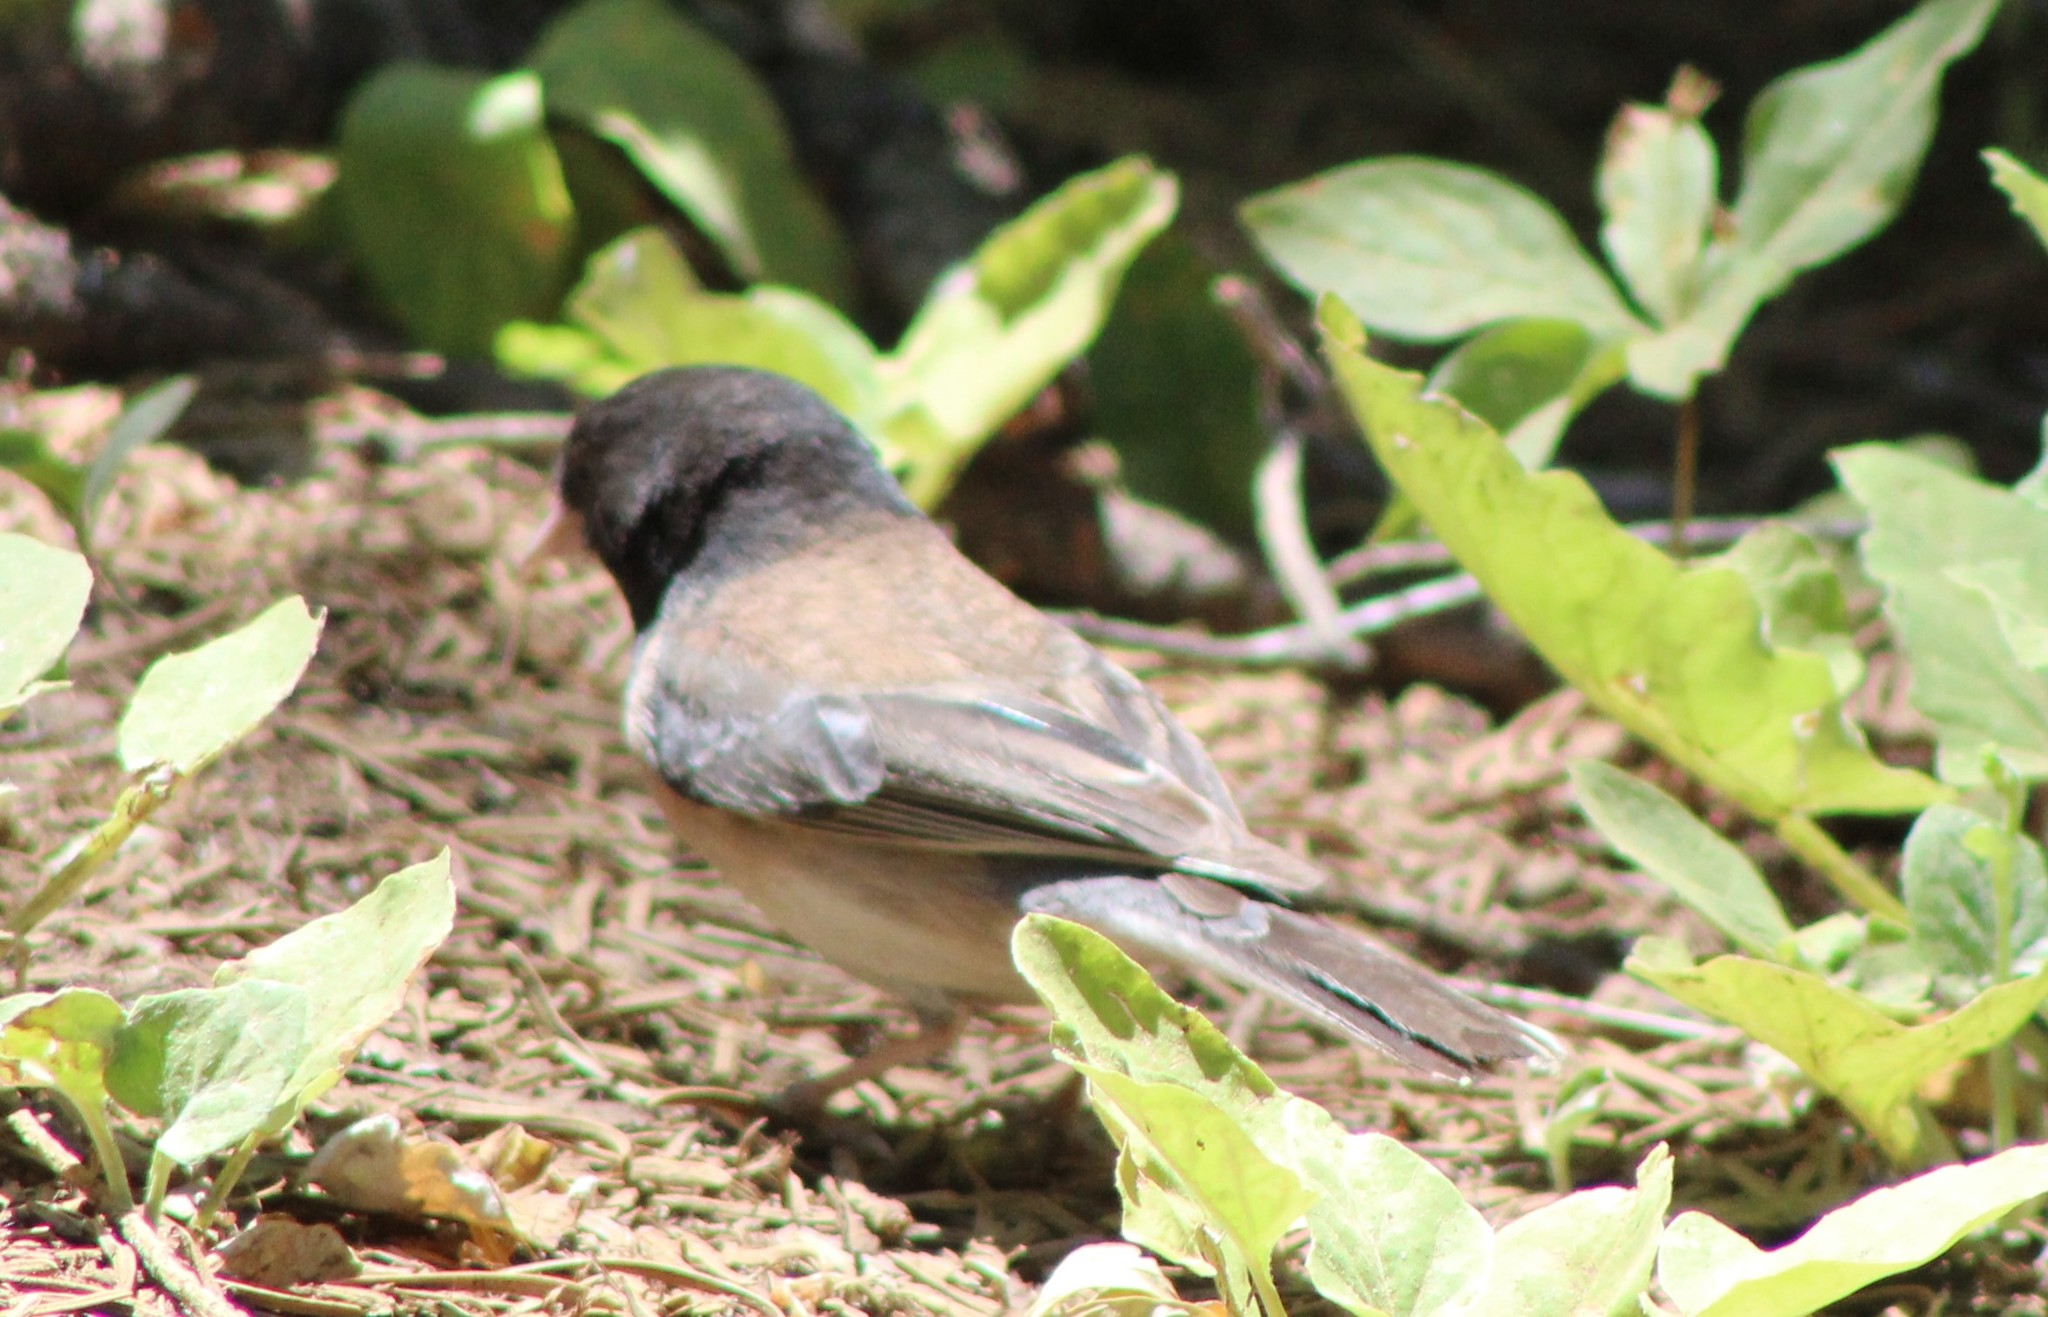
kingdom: Animalia
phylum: Chordata
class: Aves
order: Passeriformes
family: Passerellidae
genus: Junco
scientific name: Junco hyemalis
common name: Dark-eyed junco
